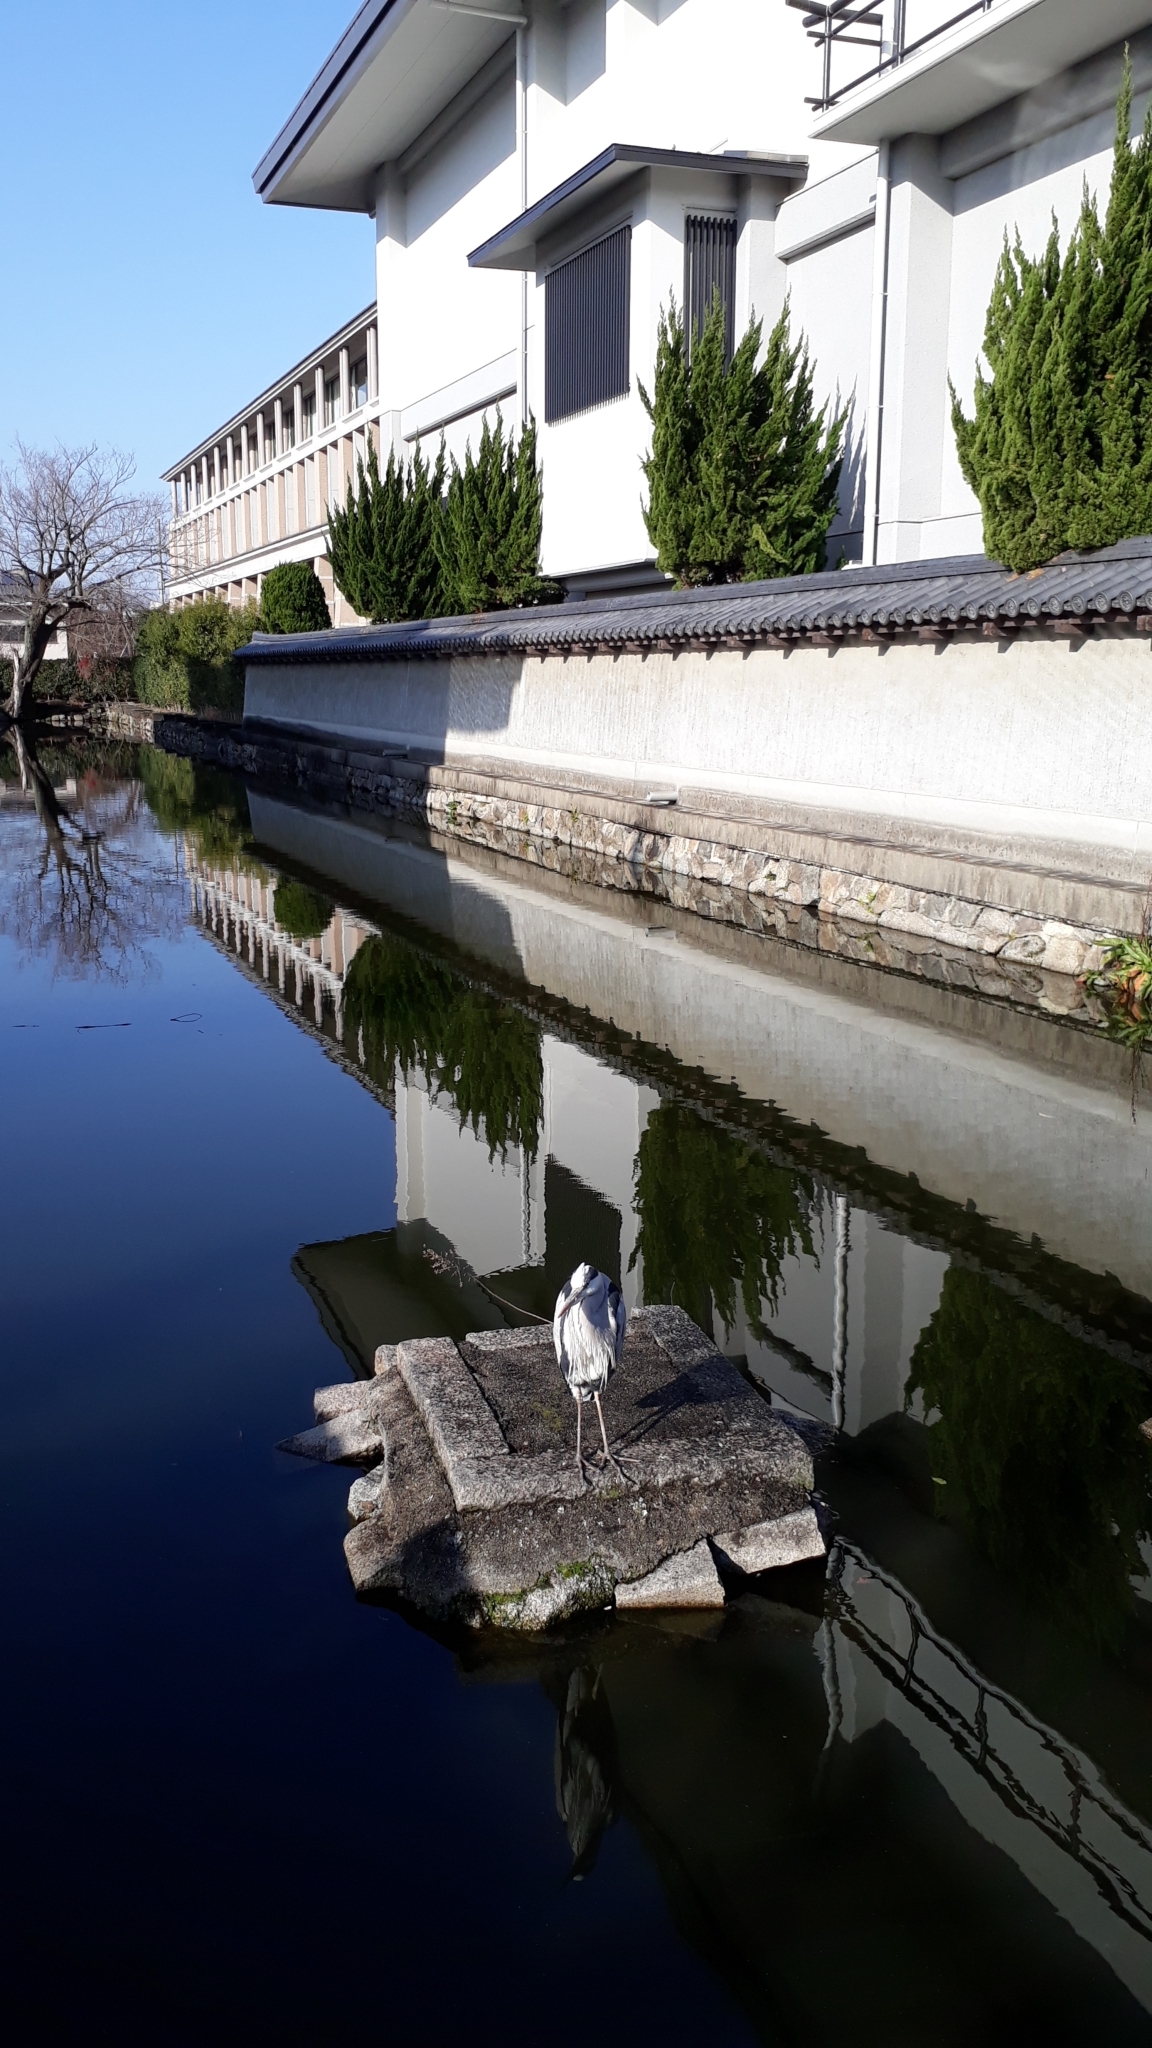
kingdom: Animalia
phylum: Chordata
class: Aves
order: Pelecaniformes
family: Ardeidae
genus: Ardea
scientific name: Ardea cinerea
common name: Grey heron
